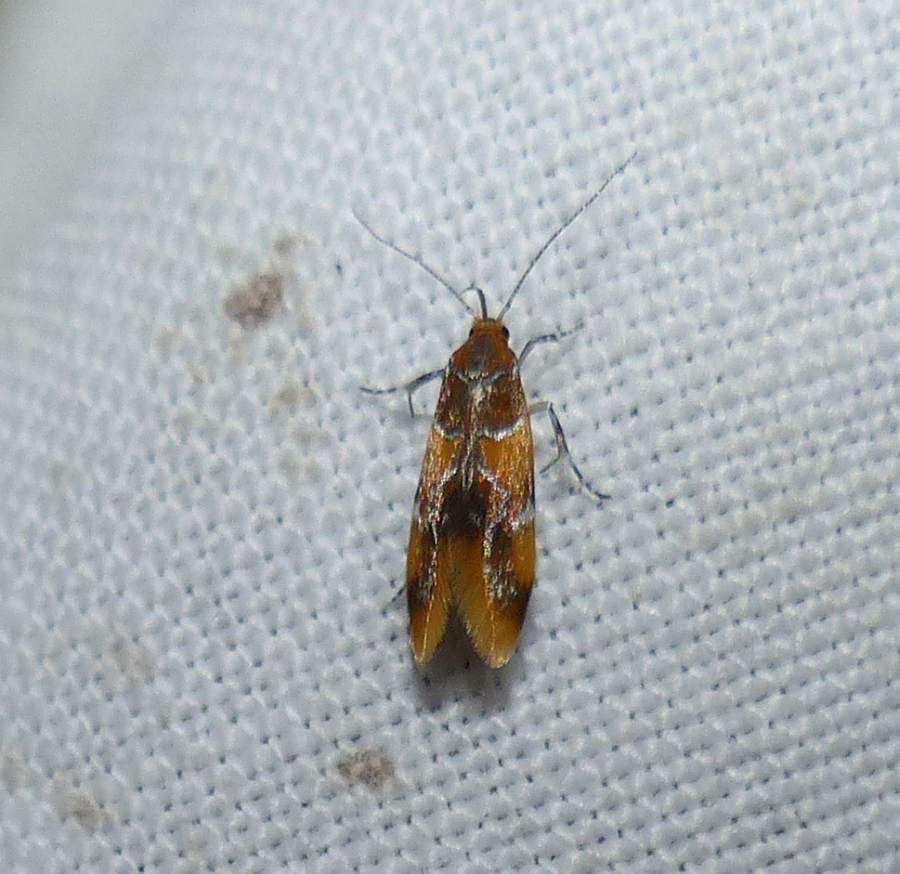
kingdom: Animalia
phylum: Arthropoda
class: Insecta
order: Lepidoptera
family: Oecophoridae
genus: Callima
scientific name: Callima argenticinctella
